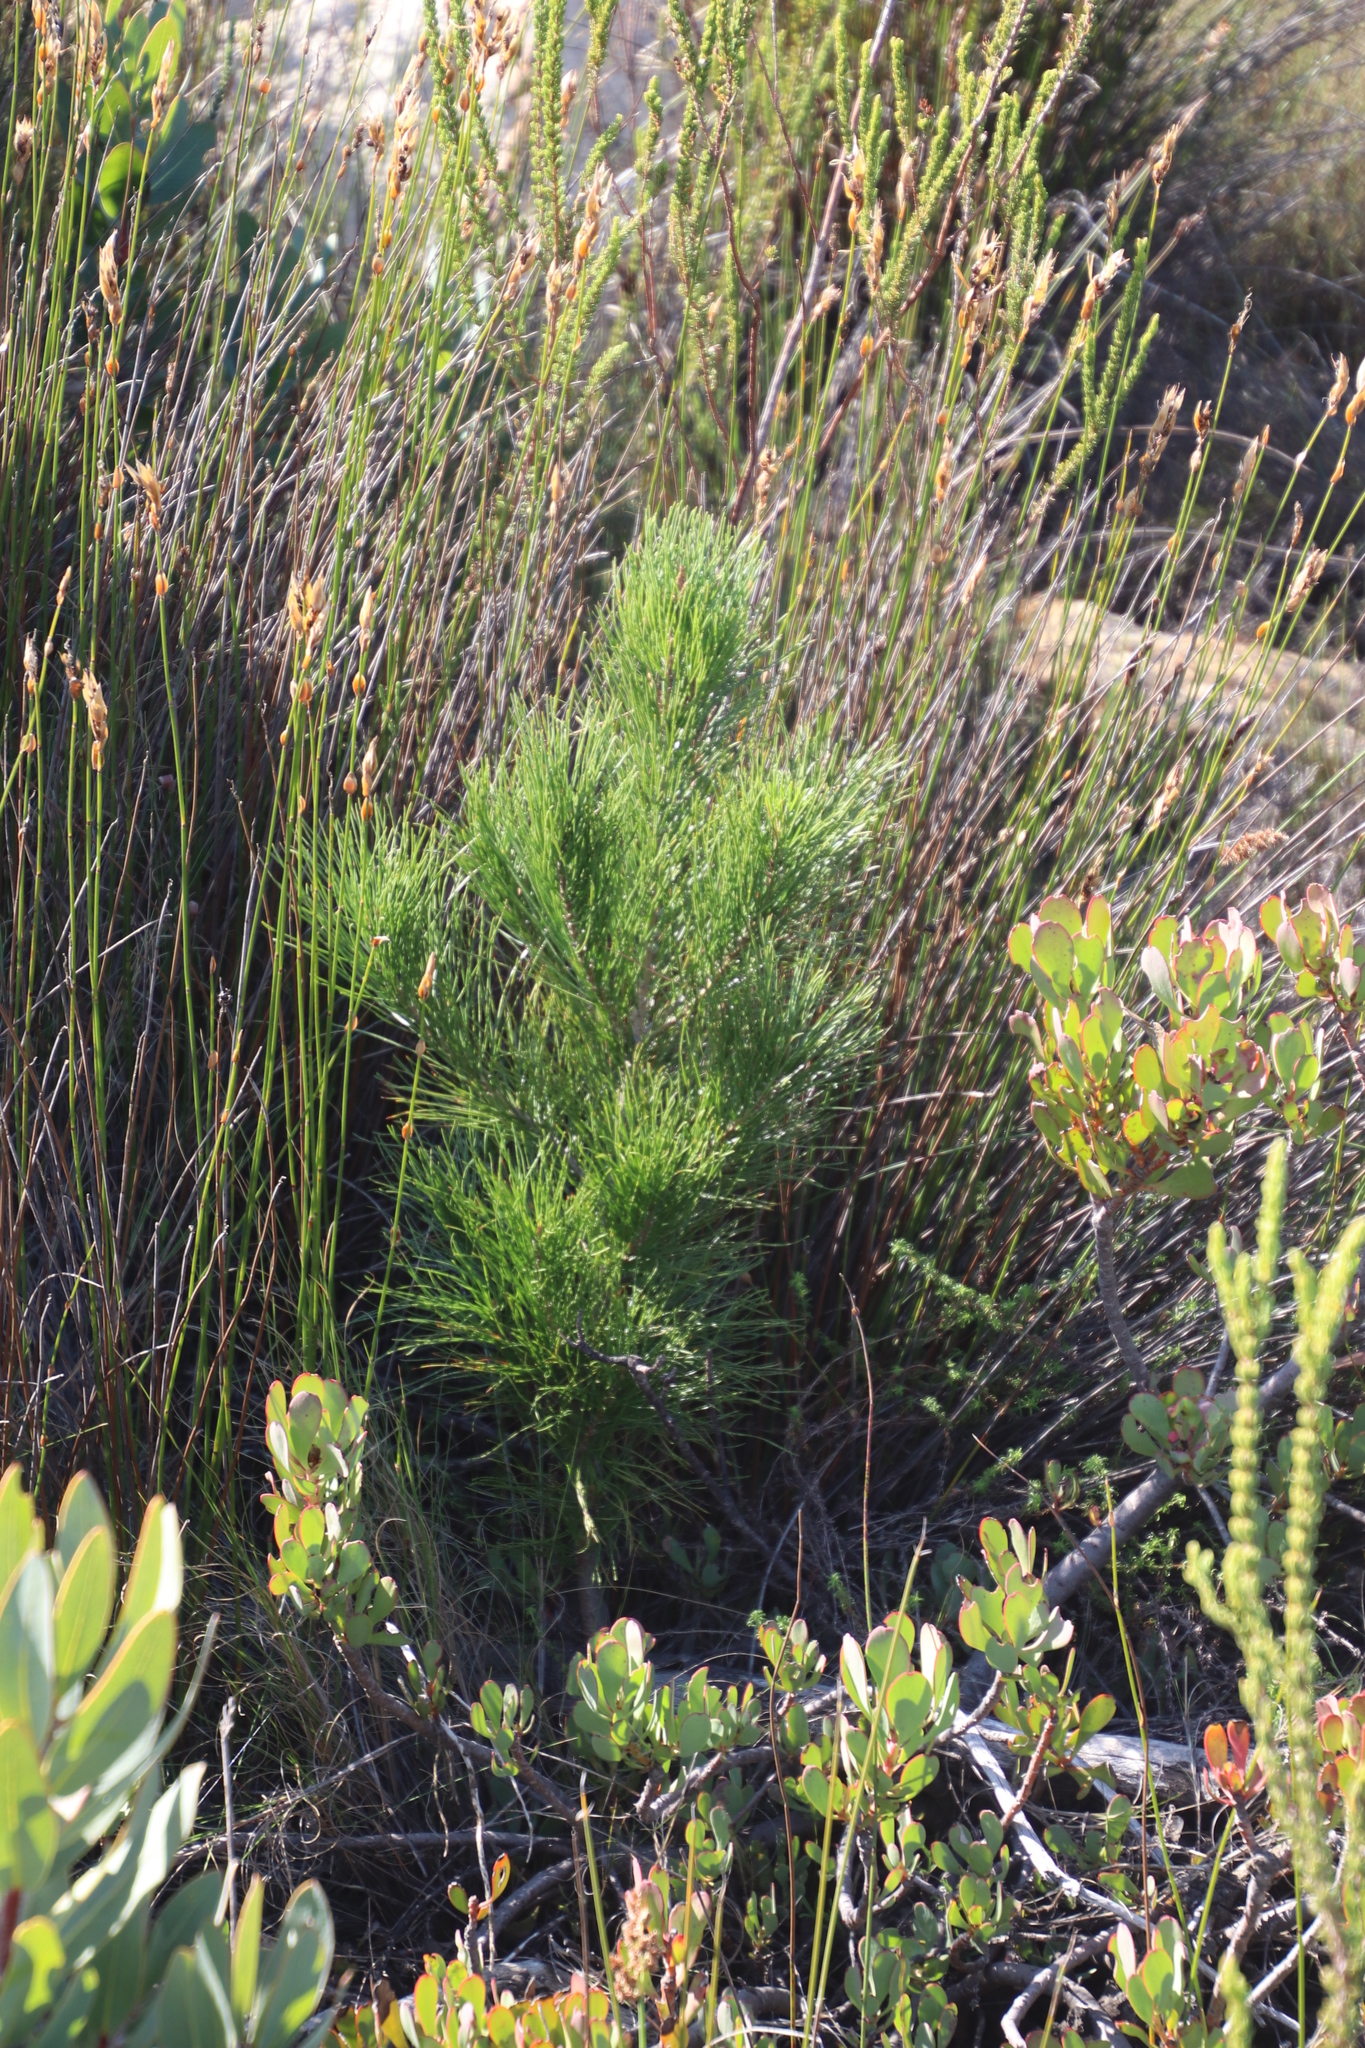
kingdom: Plantae
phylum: Tracheophyta
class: Pinopsida
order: Pinales
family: Pinaceae
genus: Pinus
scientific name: Pinus radiata
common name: Monterey pine
